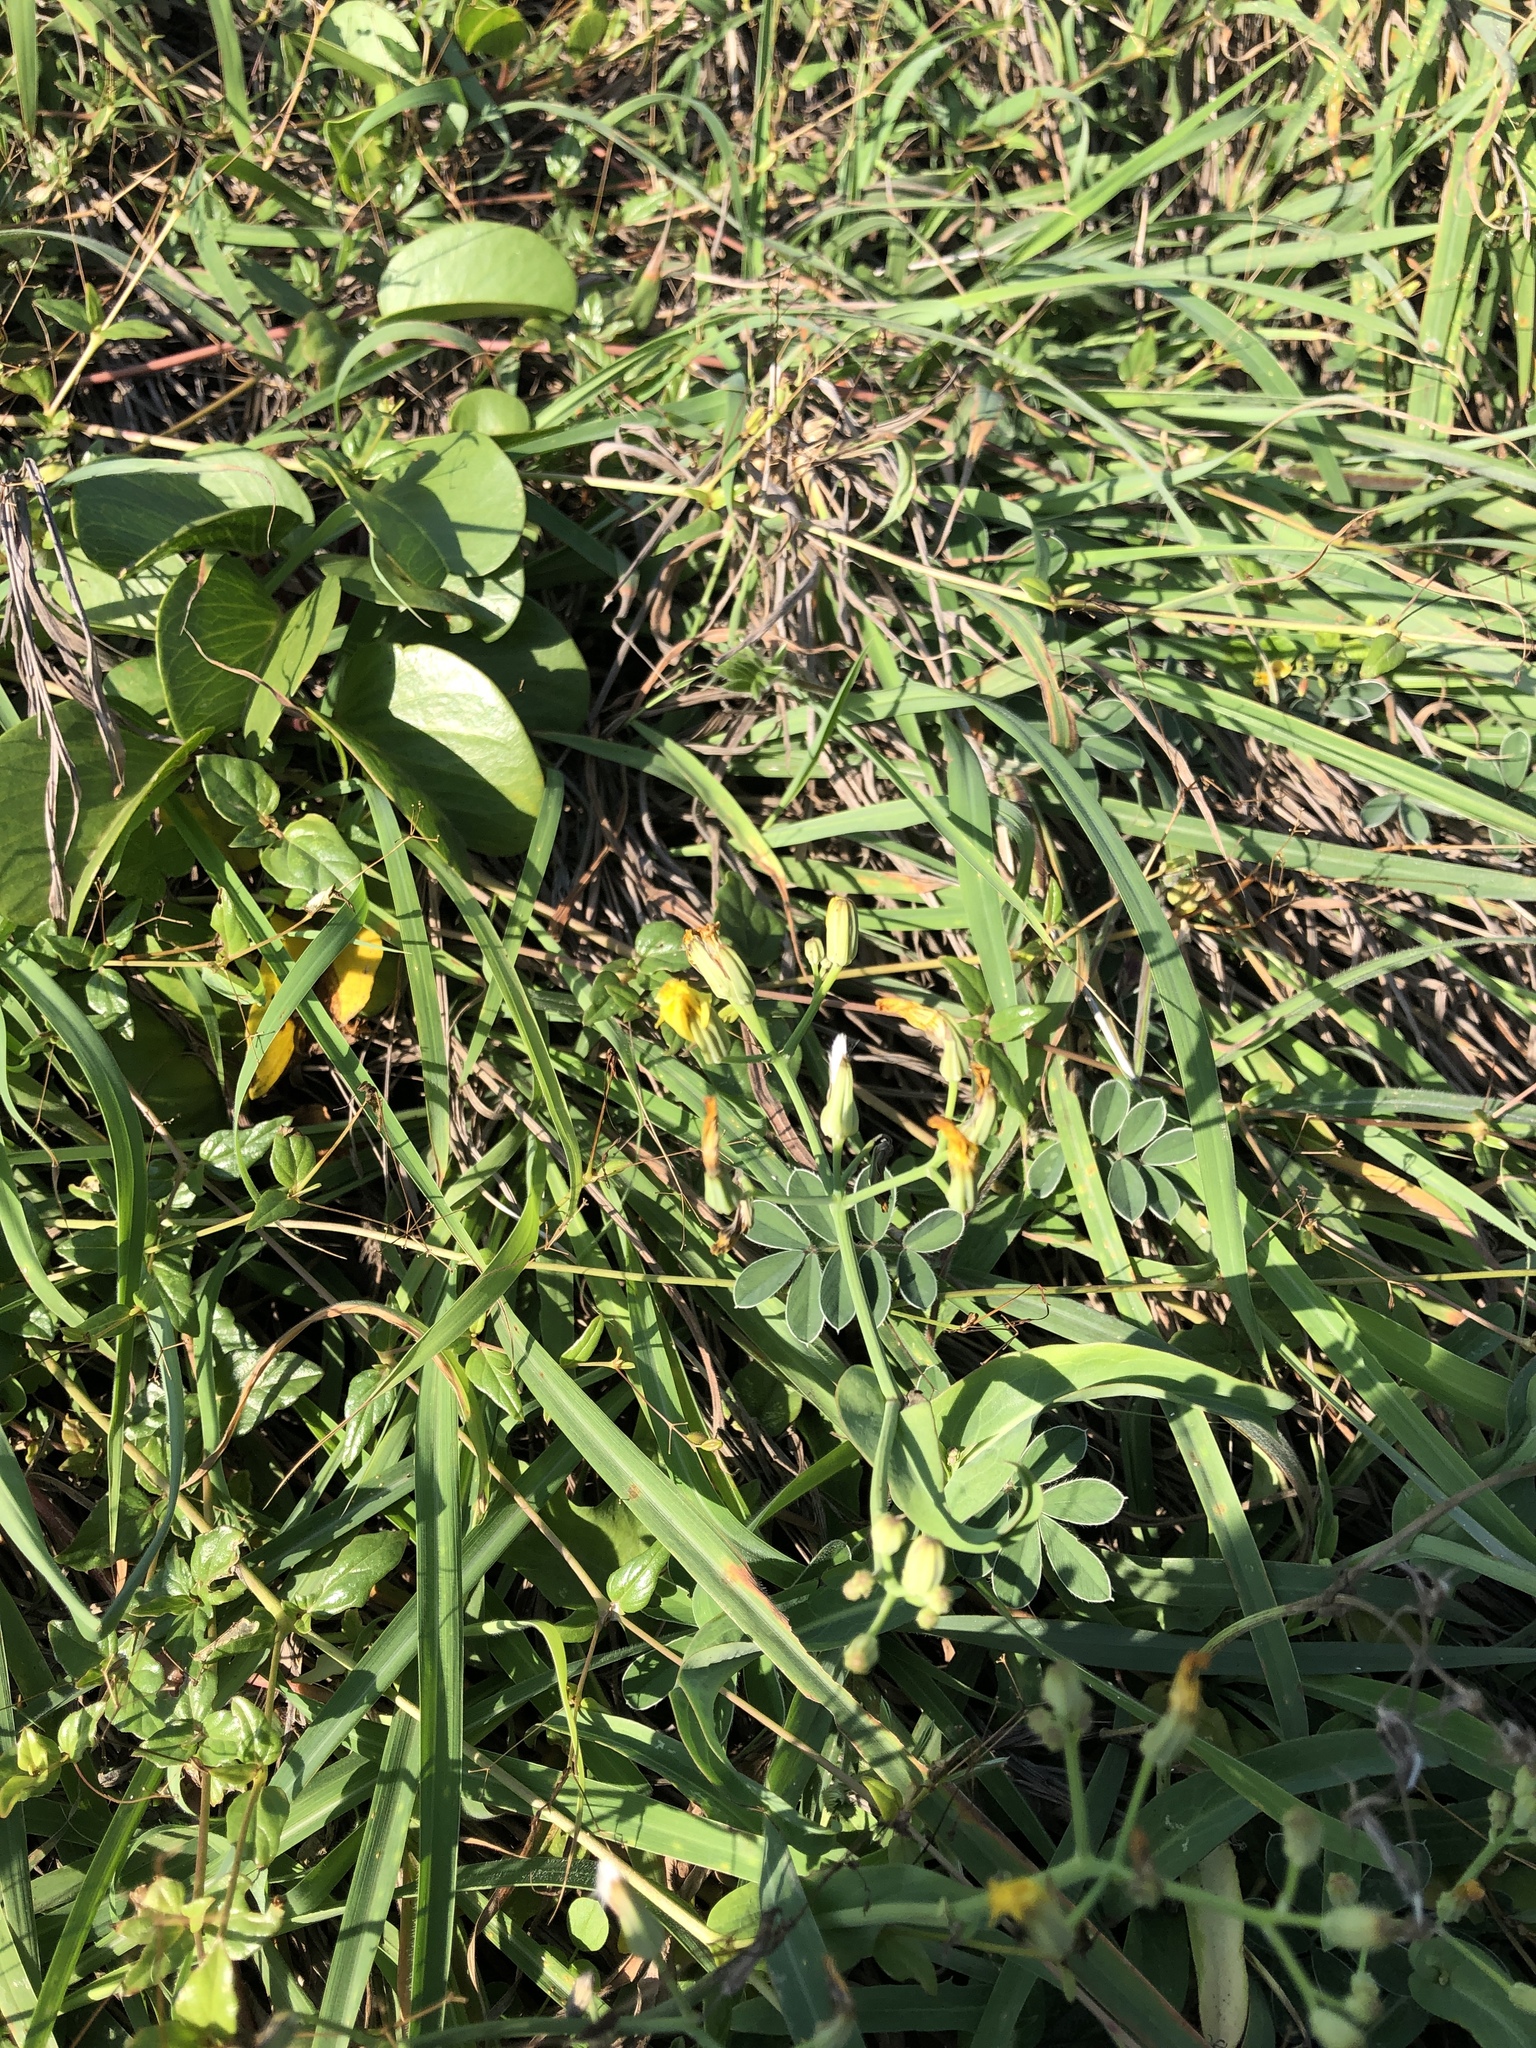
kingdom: Plantae
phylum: Tracheophyta
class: Magnoliopsida
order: Asterales
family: Asteraceae
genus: Ixeris
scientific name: Ixeris chinensis
